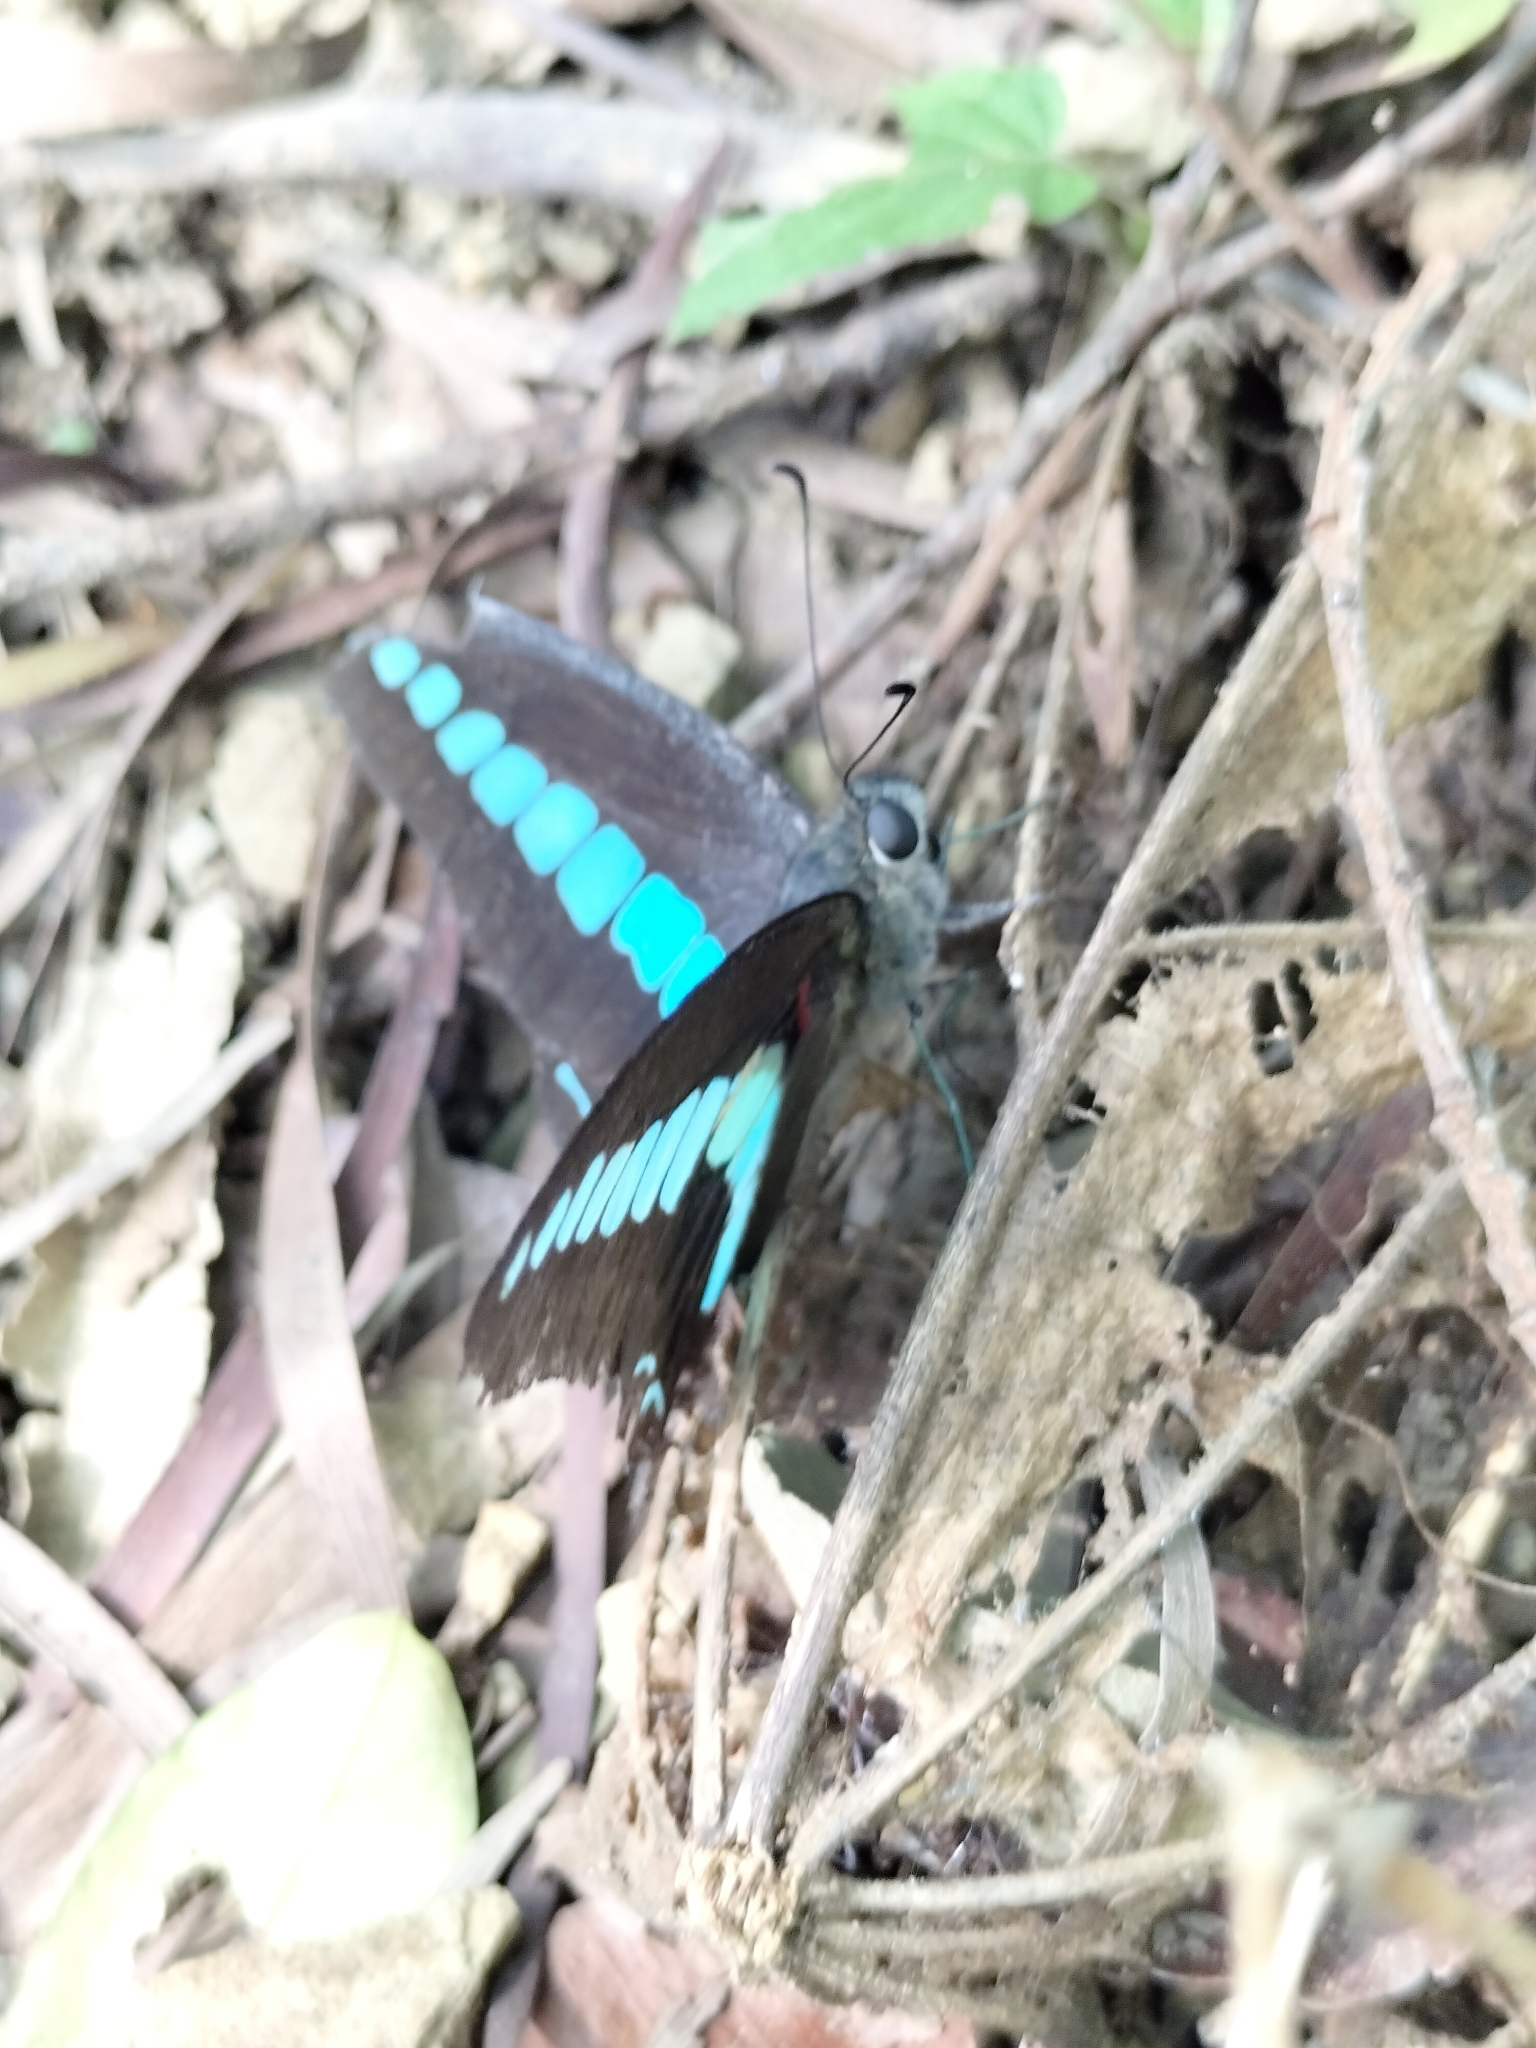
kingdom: Fungi
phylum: Ascomycota
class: Sordariomycetes
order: Microascales
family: Microascaceae
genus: Graphium
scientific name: Graphium sarpedon
